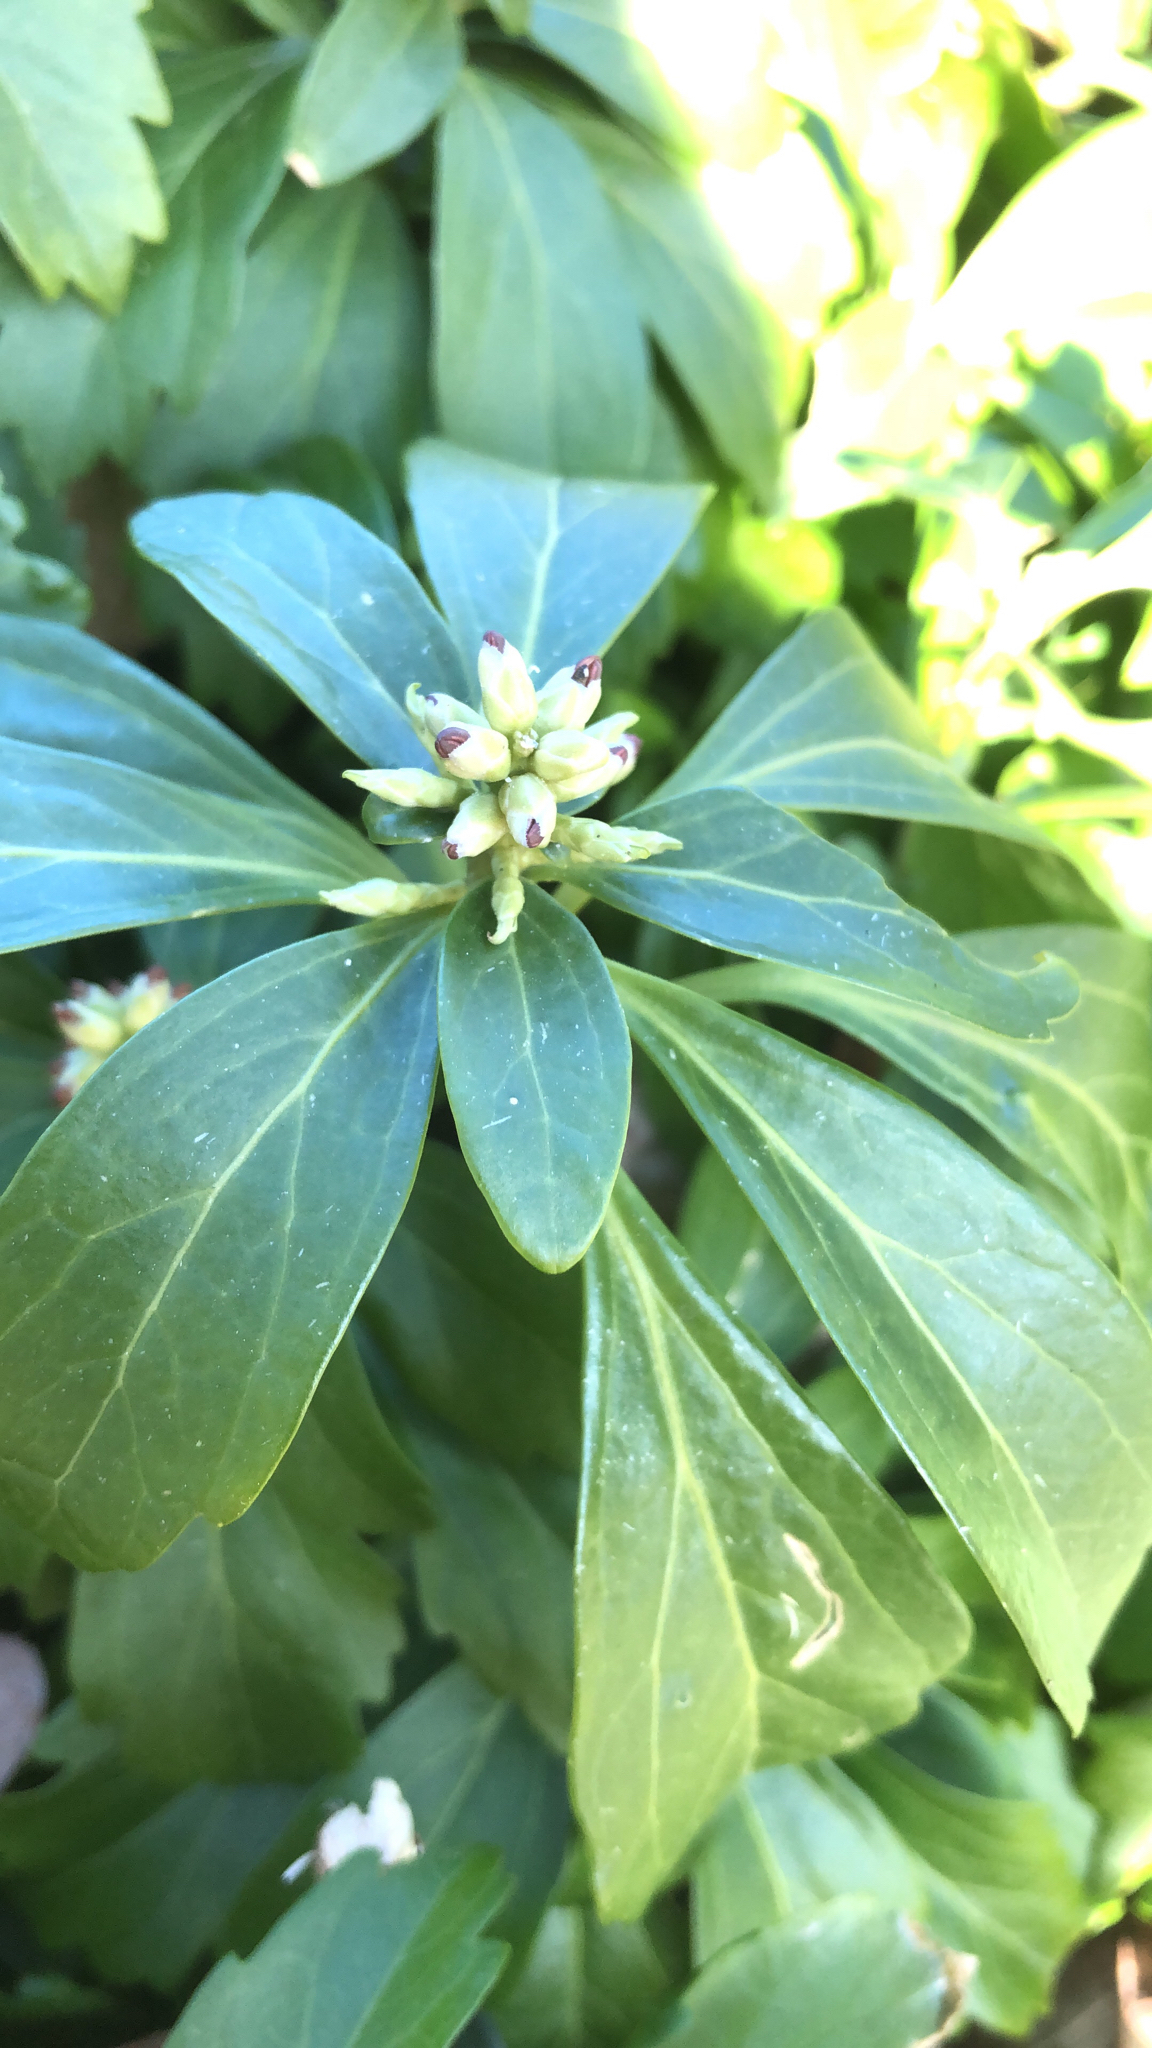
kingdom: Plantae
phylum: Tracheophyta
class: Magnoliopsida
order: Buxales
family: Buxaceae
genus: Pachysandra
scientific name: Pachysandra terminalis
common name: Japanese pachysandra
